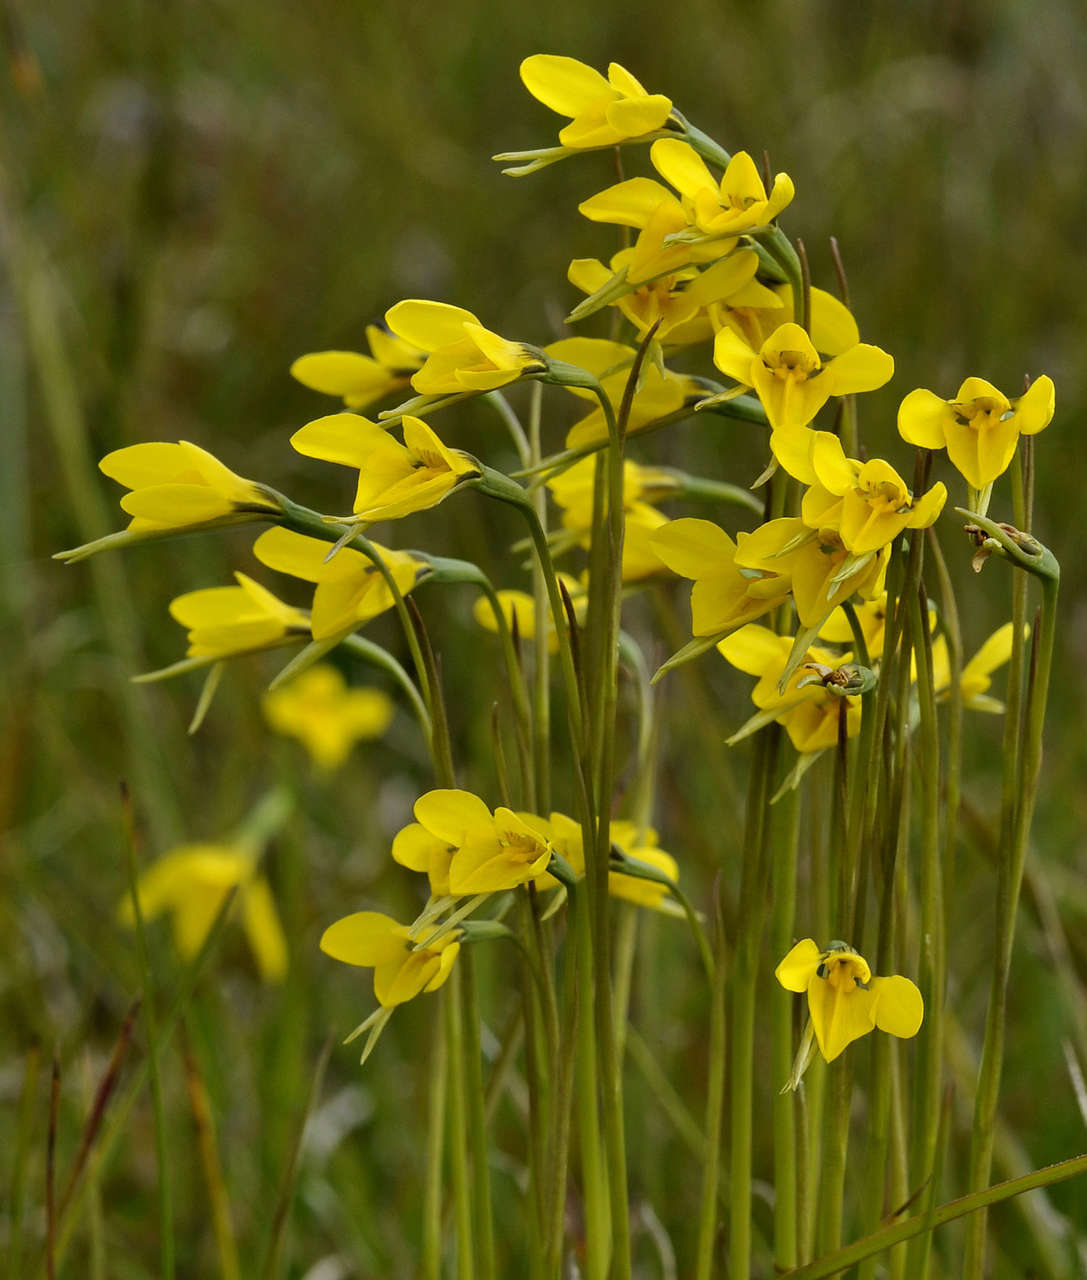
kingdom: Plantae
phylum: Tracheophyta
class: Liliopsida
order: Asparagales
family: Orchidaceae
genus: Diuris
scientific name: Diuris chryseopsis
